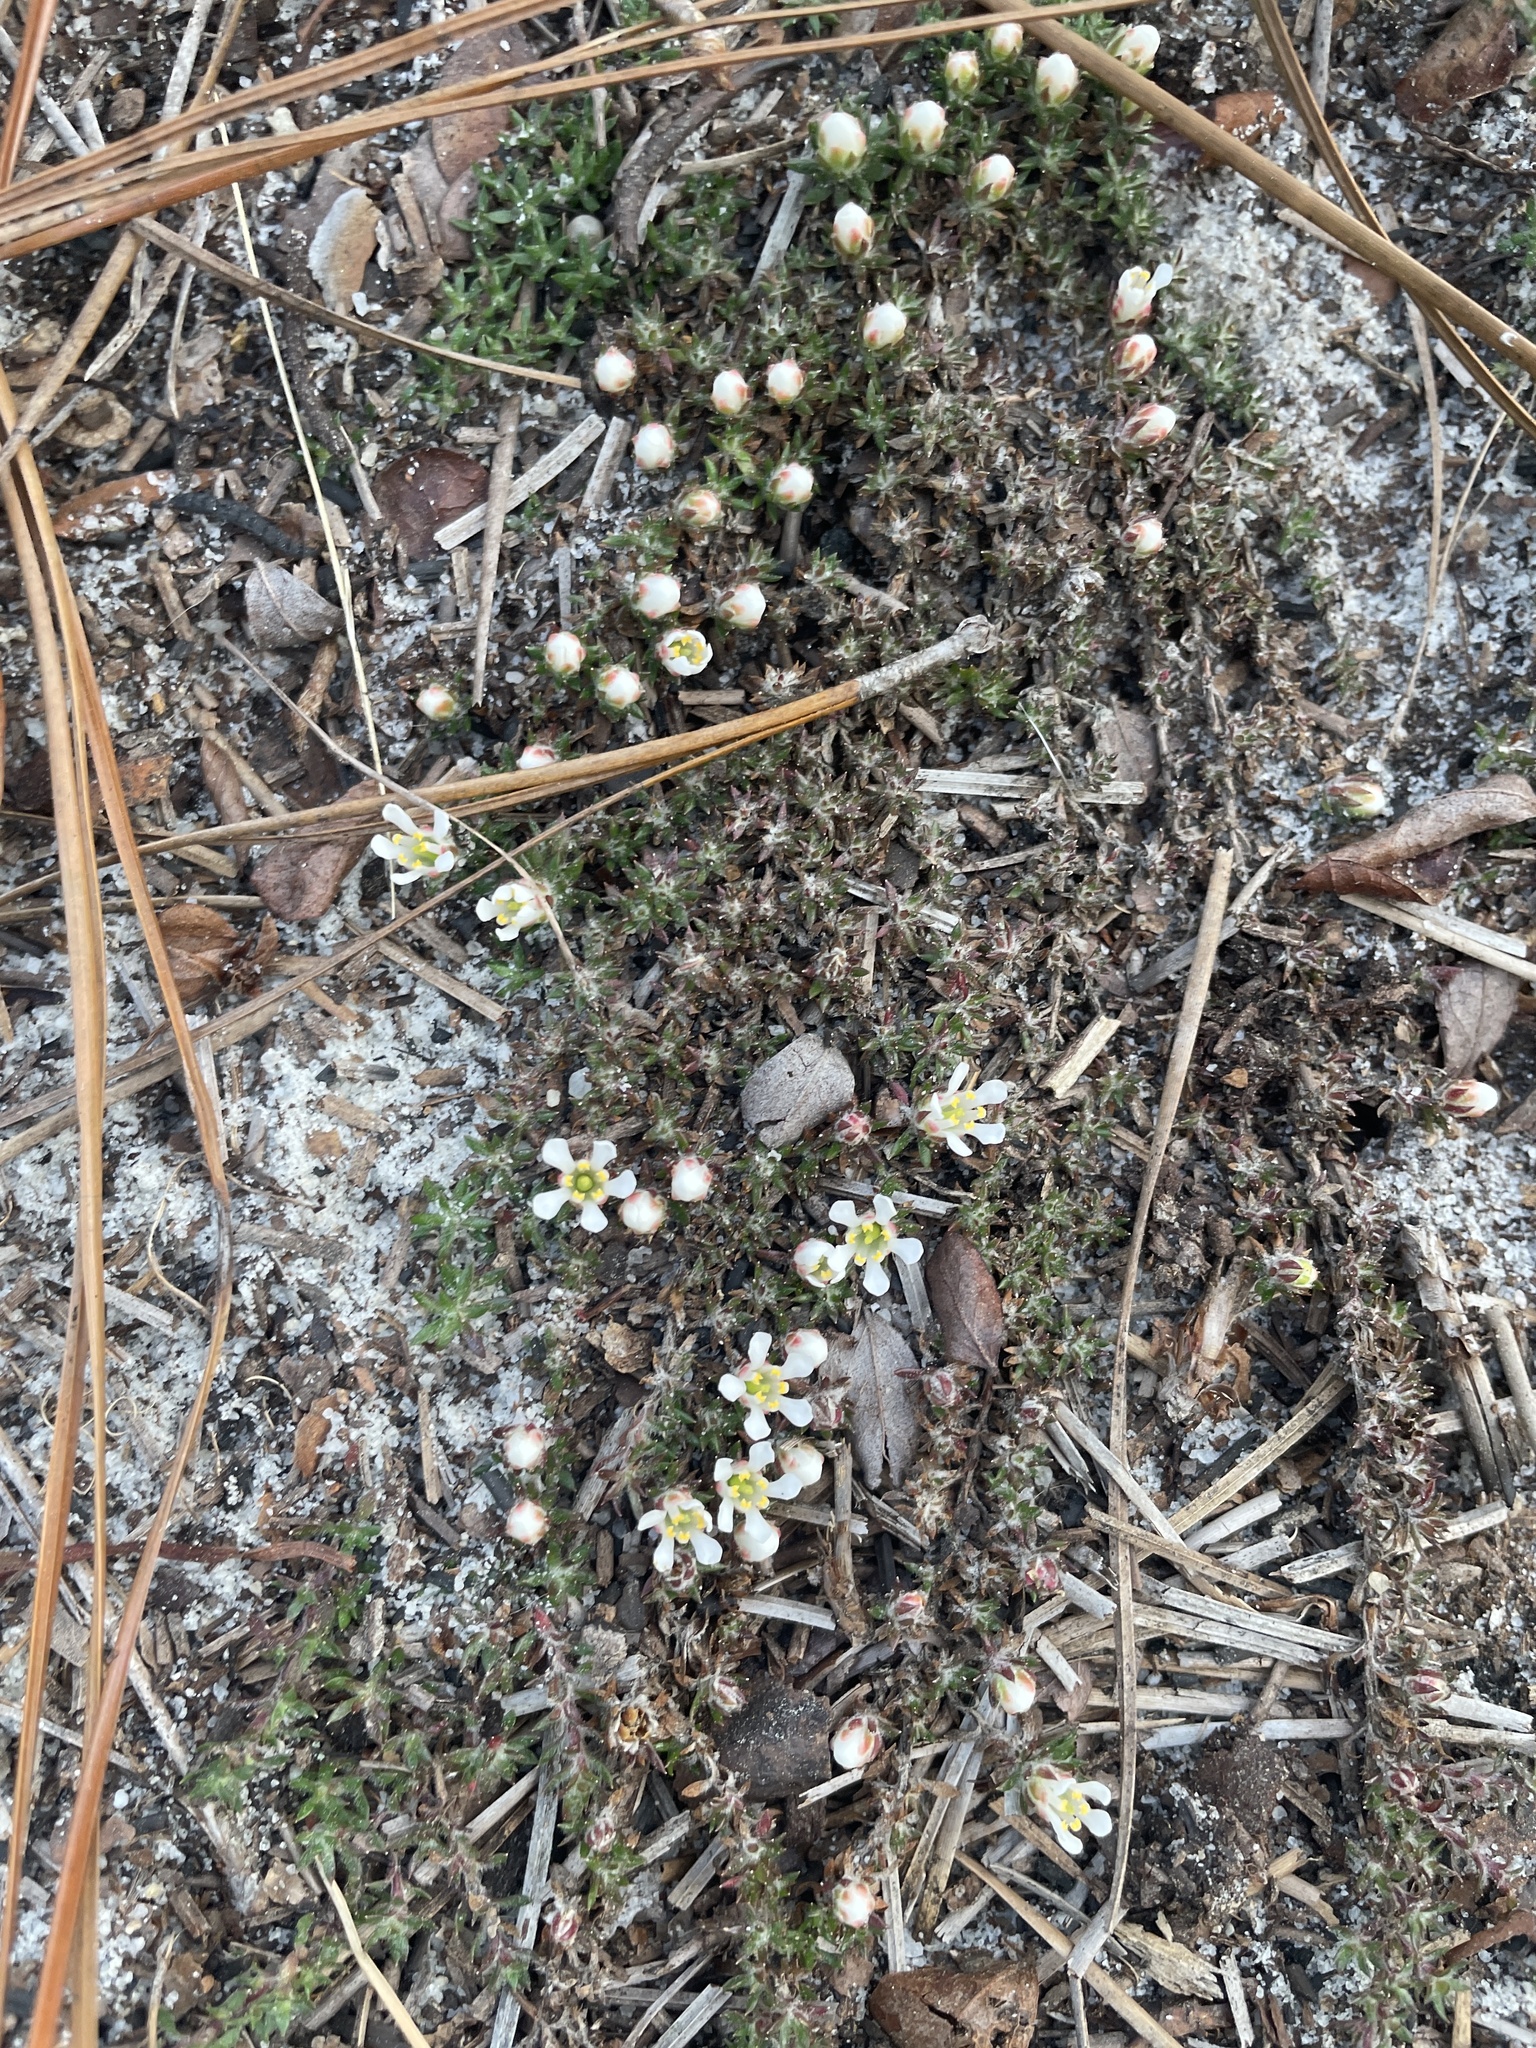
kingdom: Plantae
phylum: Tracheophyta
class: Magnoliopsida
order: Ericales
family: Diapensiaceae
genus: Pyxidanthera
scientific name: Pyxidanthera brevifolia
